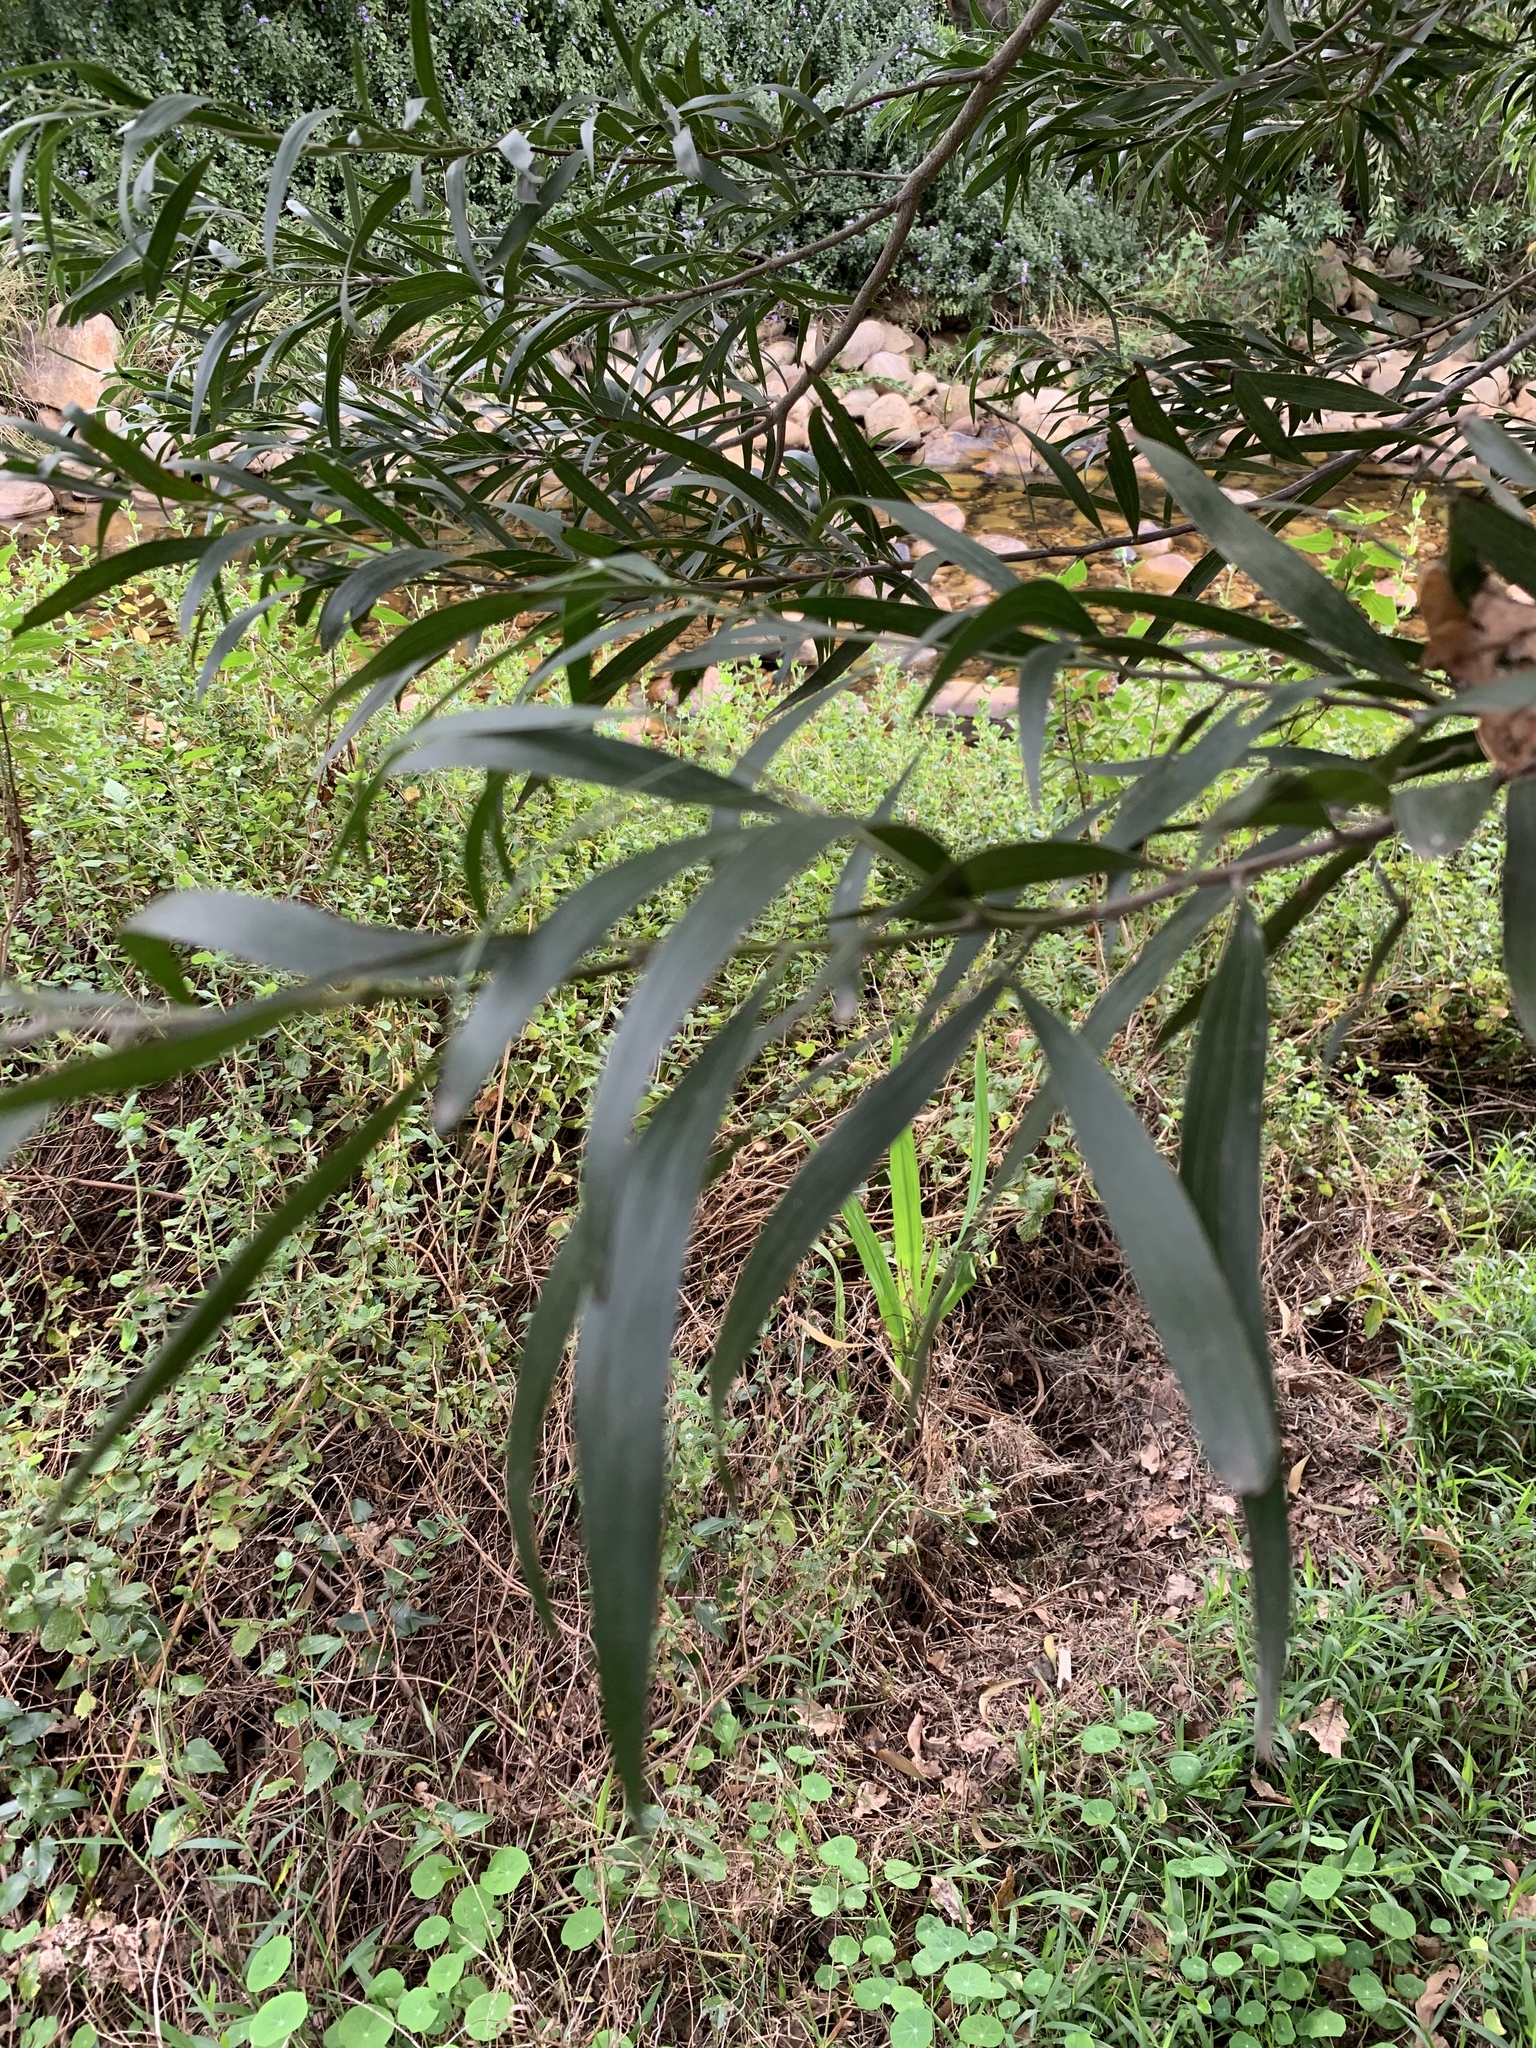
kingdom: Plantae
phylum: Tracheophyta
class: Magnoliopsida
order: Fabales
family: Fabaceae
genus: Acacia
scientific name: Acacia melanoxylon
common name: Blackwood
